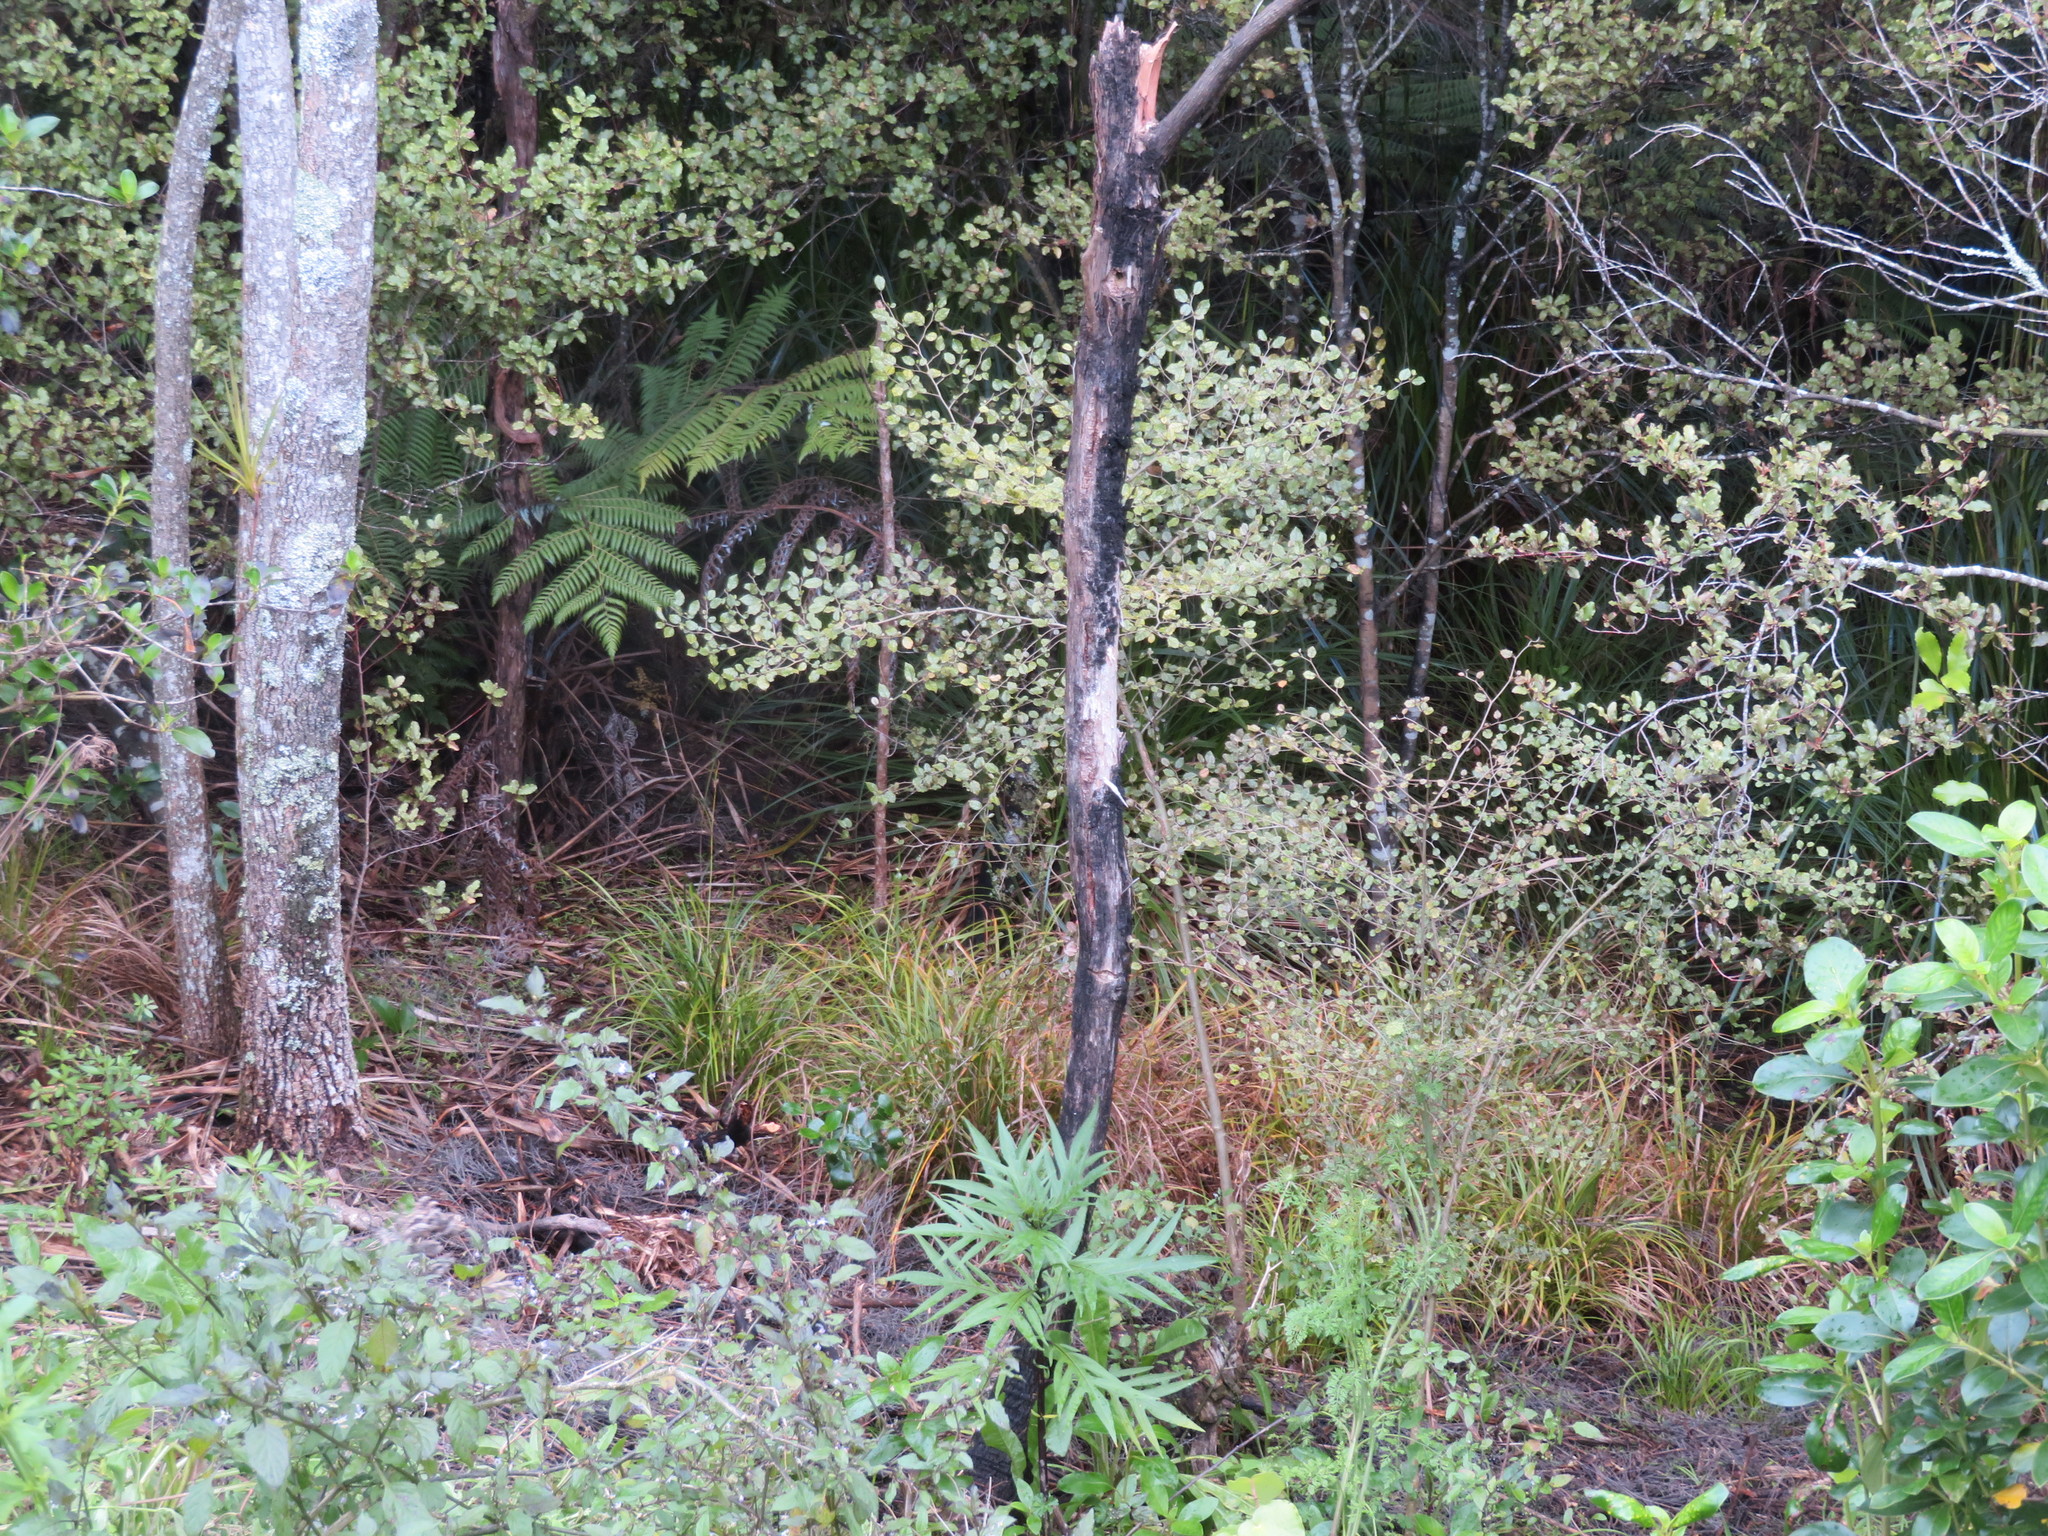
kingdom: Plantae
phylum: Tracheophyta
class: Magnoliopsida
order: Solanales
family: Solanaceae
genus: Solanum
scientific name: Solanum laciniatum
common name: Kangaroo-apple
